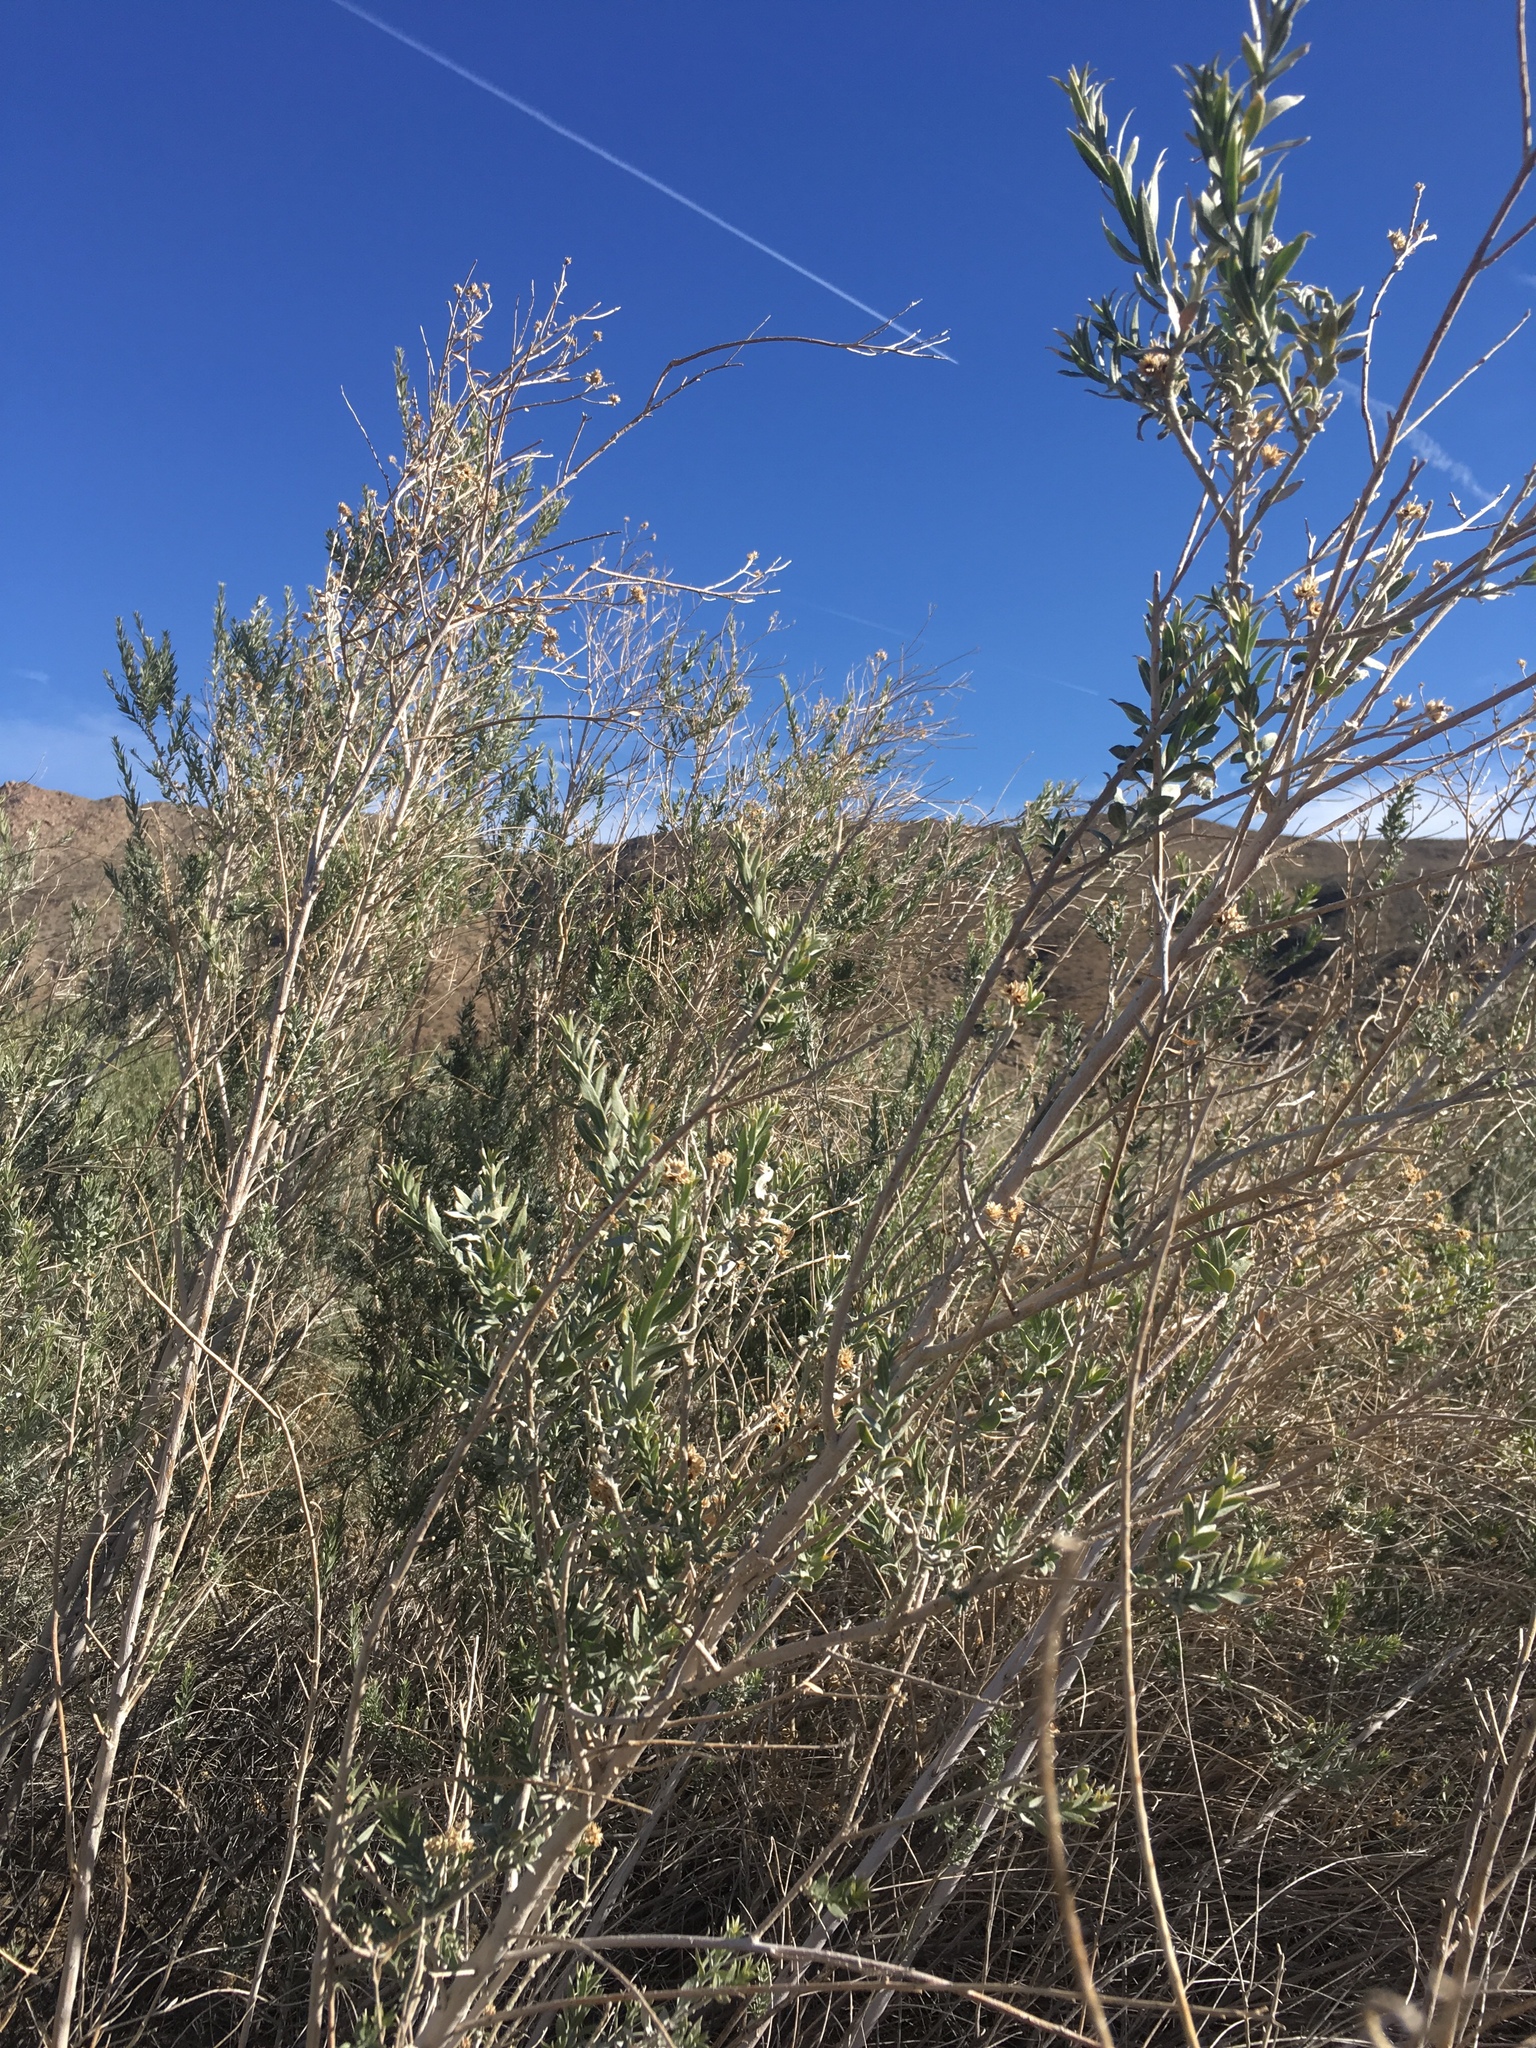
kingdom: Plantae
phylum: Tracheophyta
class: Magnoliopsida
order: Asterales
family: Asteraceae
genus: Pluchea
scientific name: Pluchea sericea
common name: Arrow-weed
